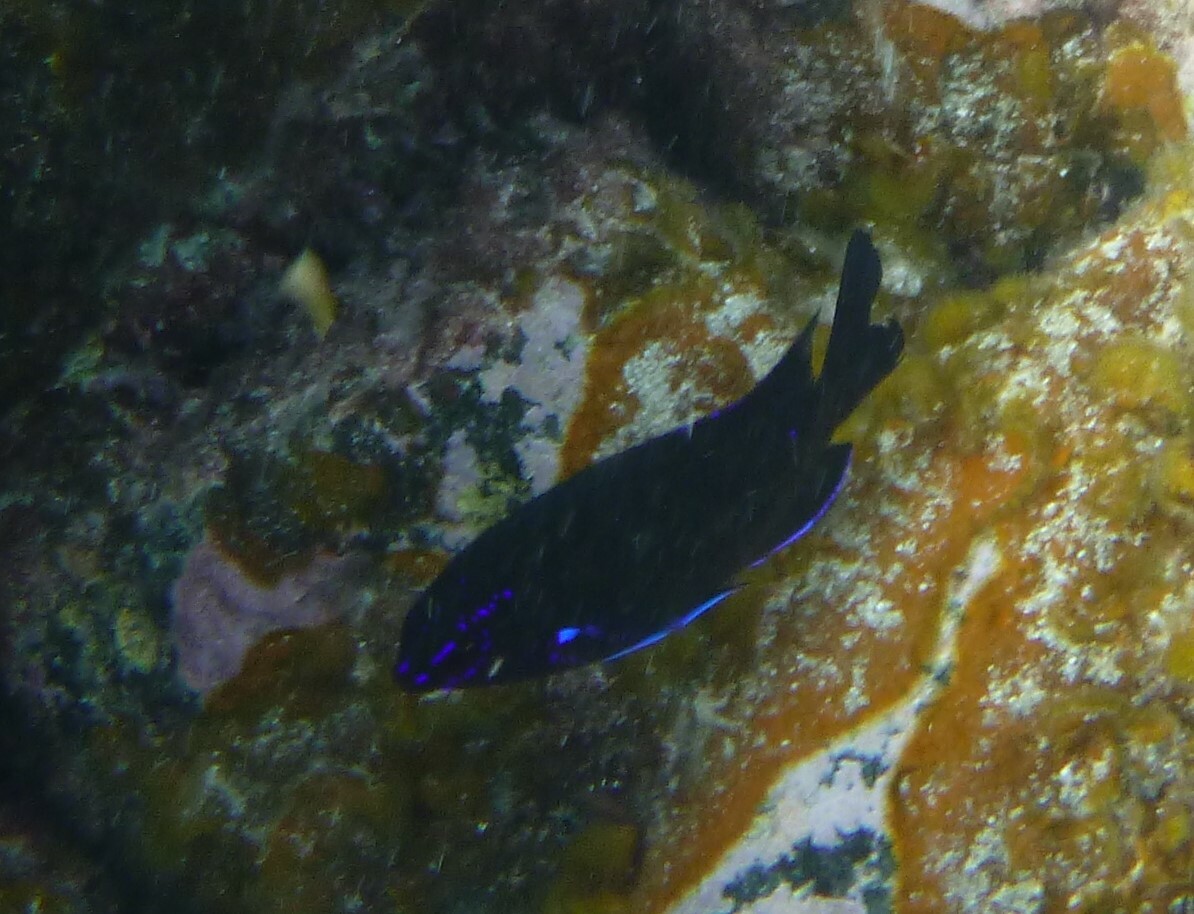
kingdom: Animalia
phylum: Chordata
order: Perciformes
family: Pomacentridae
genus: Similiparma
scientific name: Similiparma lurida
